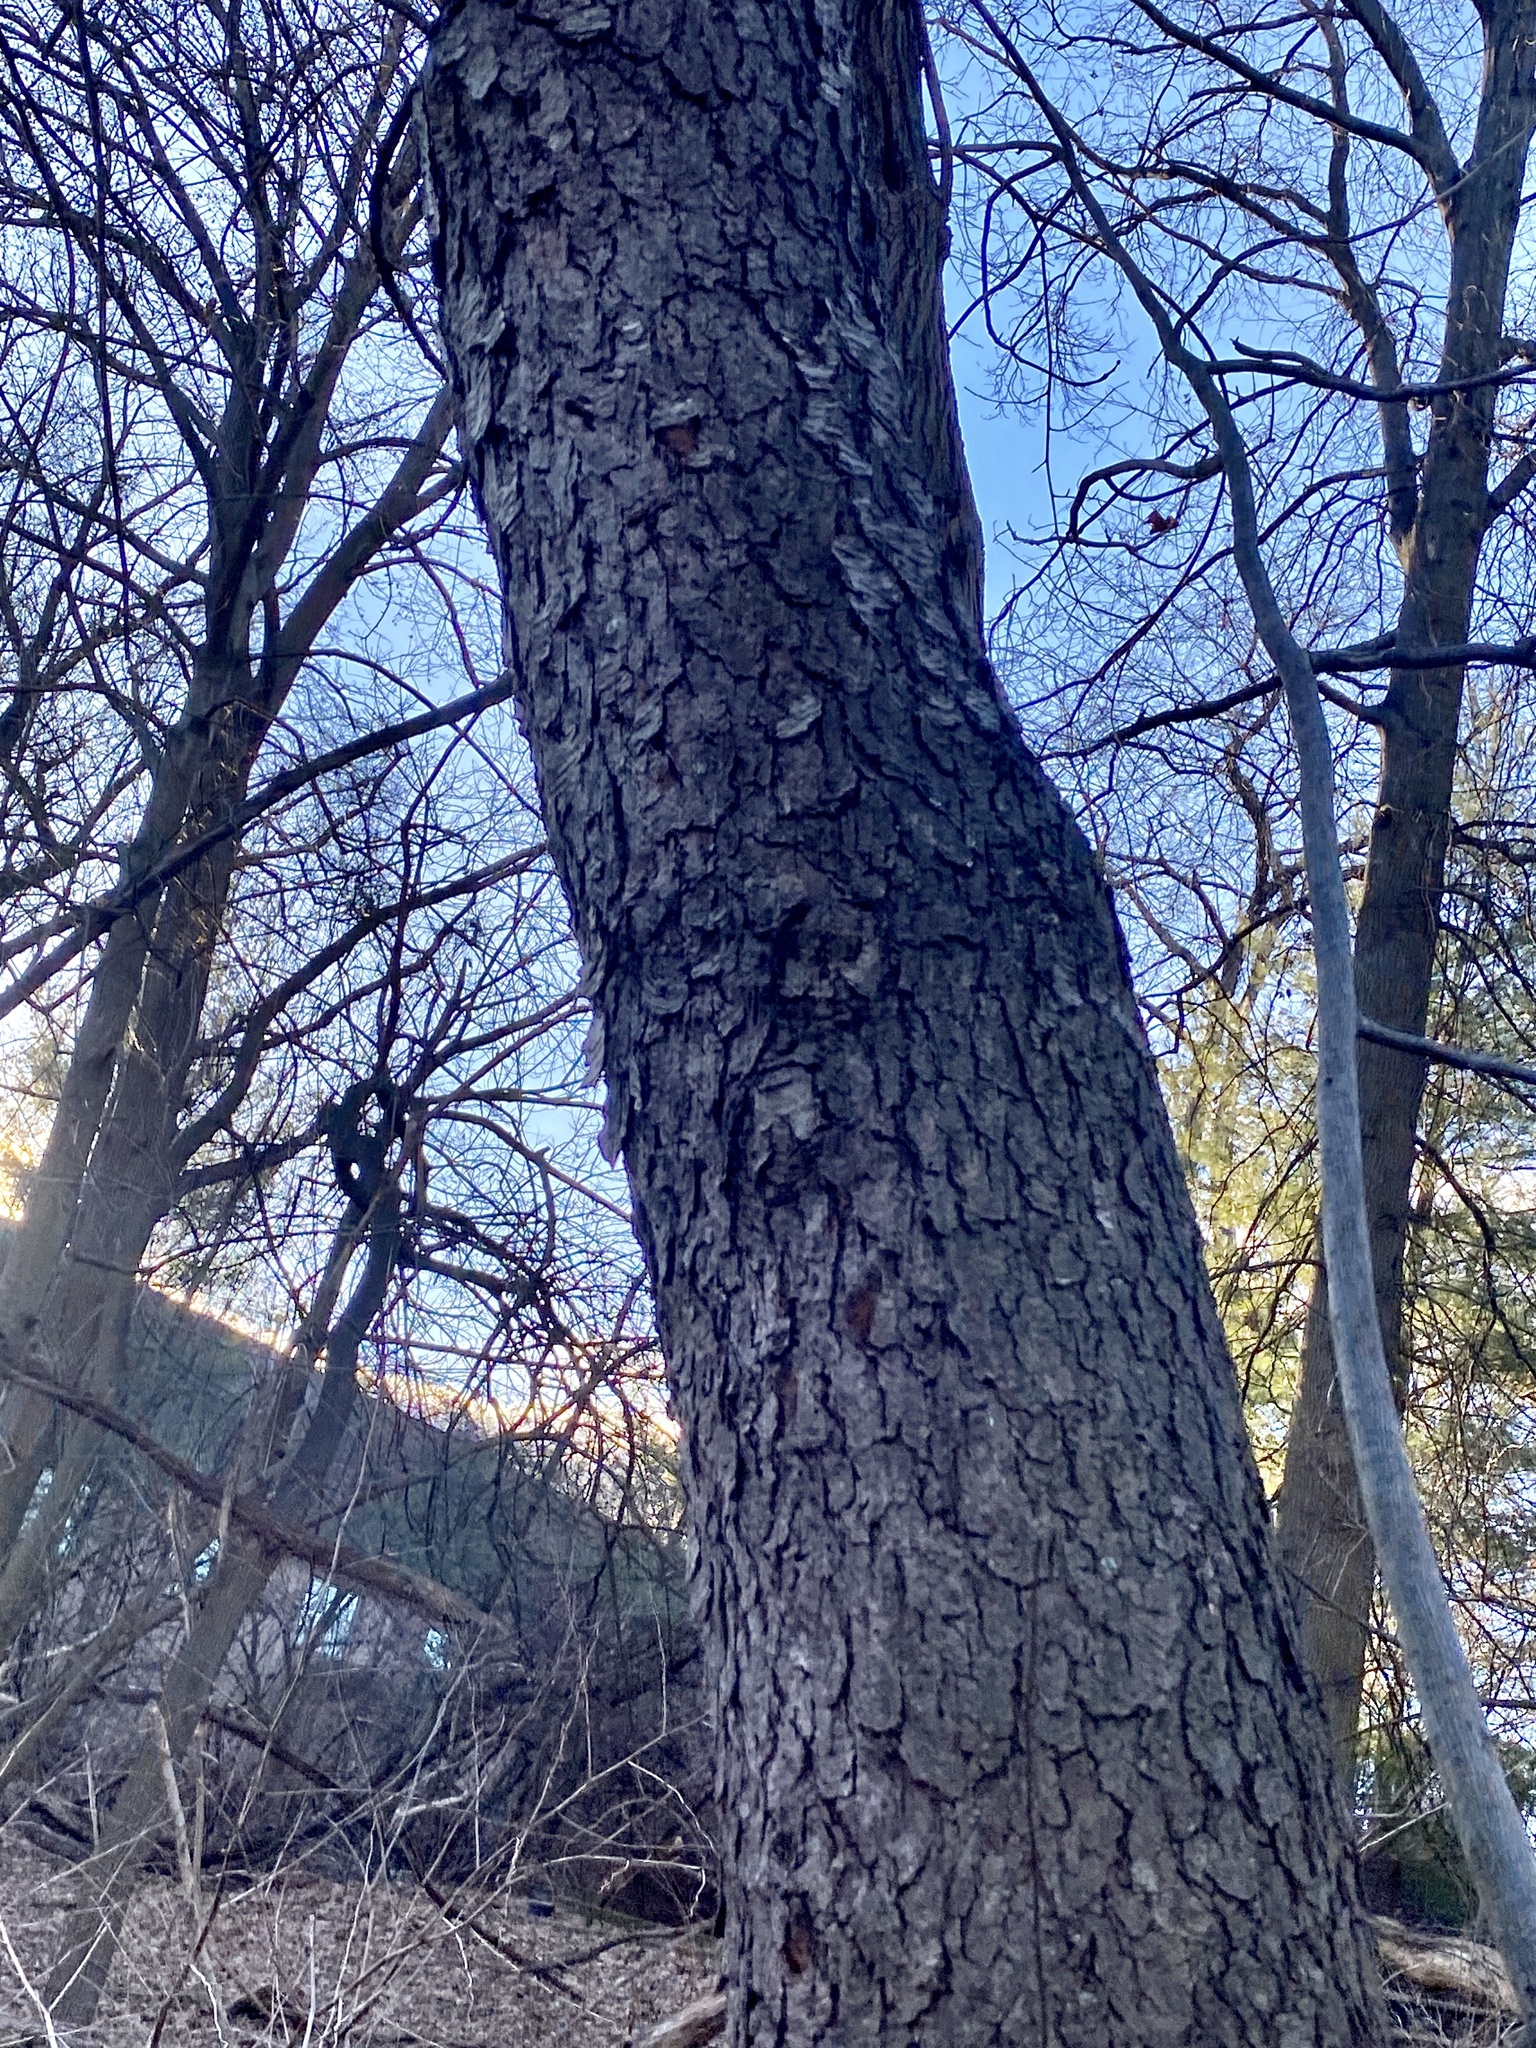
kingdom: Plantae
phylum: Tracheophyta
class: Magnoliopsida
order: Rosales
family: Rosaceae
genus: Prunus
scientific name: Prunus serotina
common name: Black cherry
